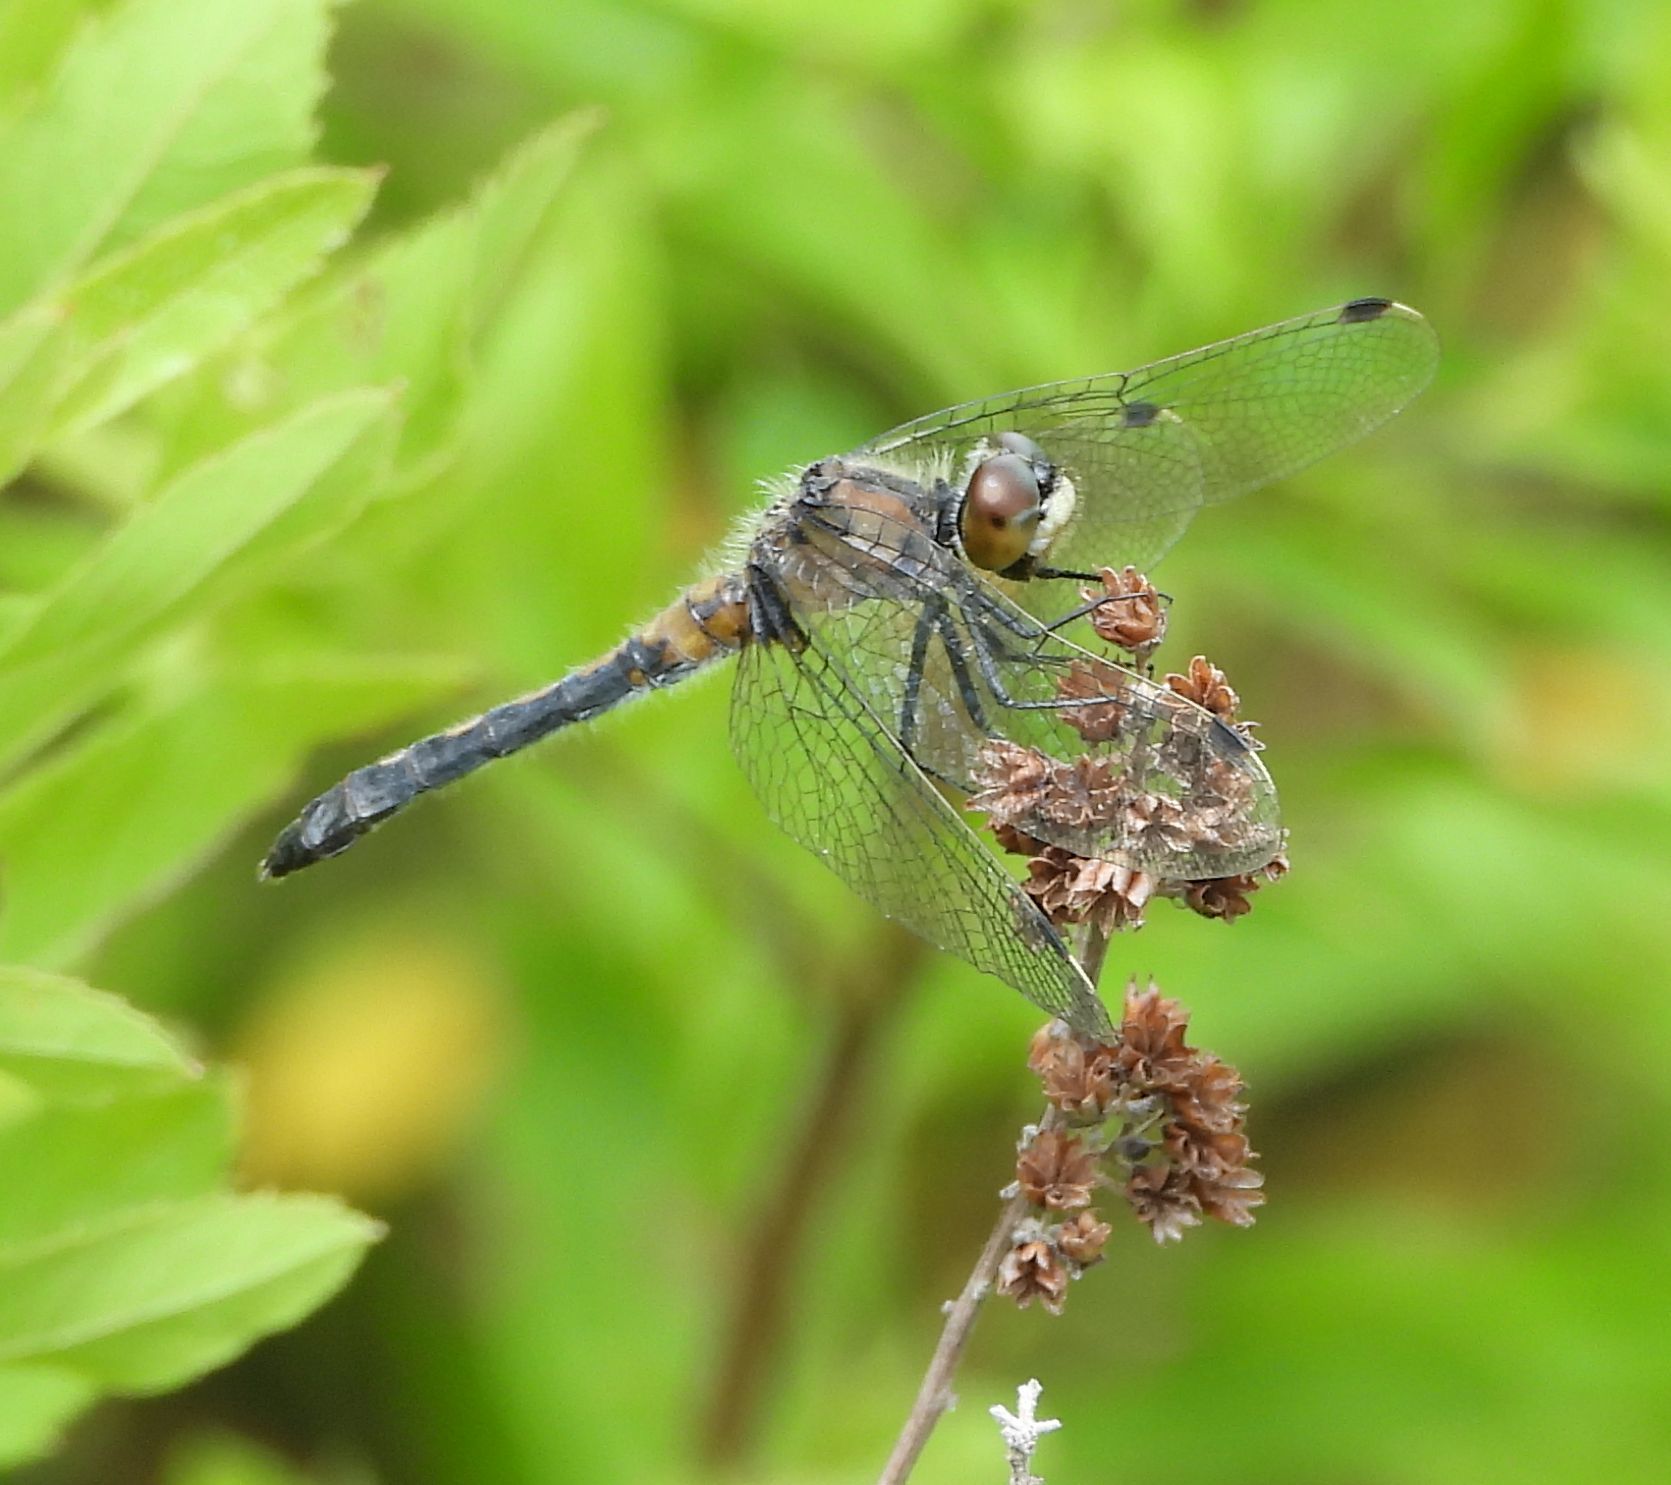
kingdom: Animalia
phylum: Arthropoda
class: Insecta
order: Odonata
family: Libellulidae
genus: Leucorrhinia
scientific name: Leucorrhinia frigida
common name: Frosted whiteface
